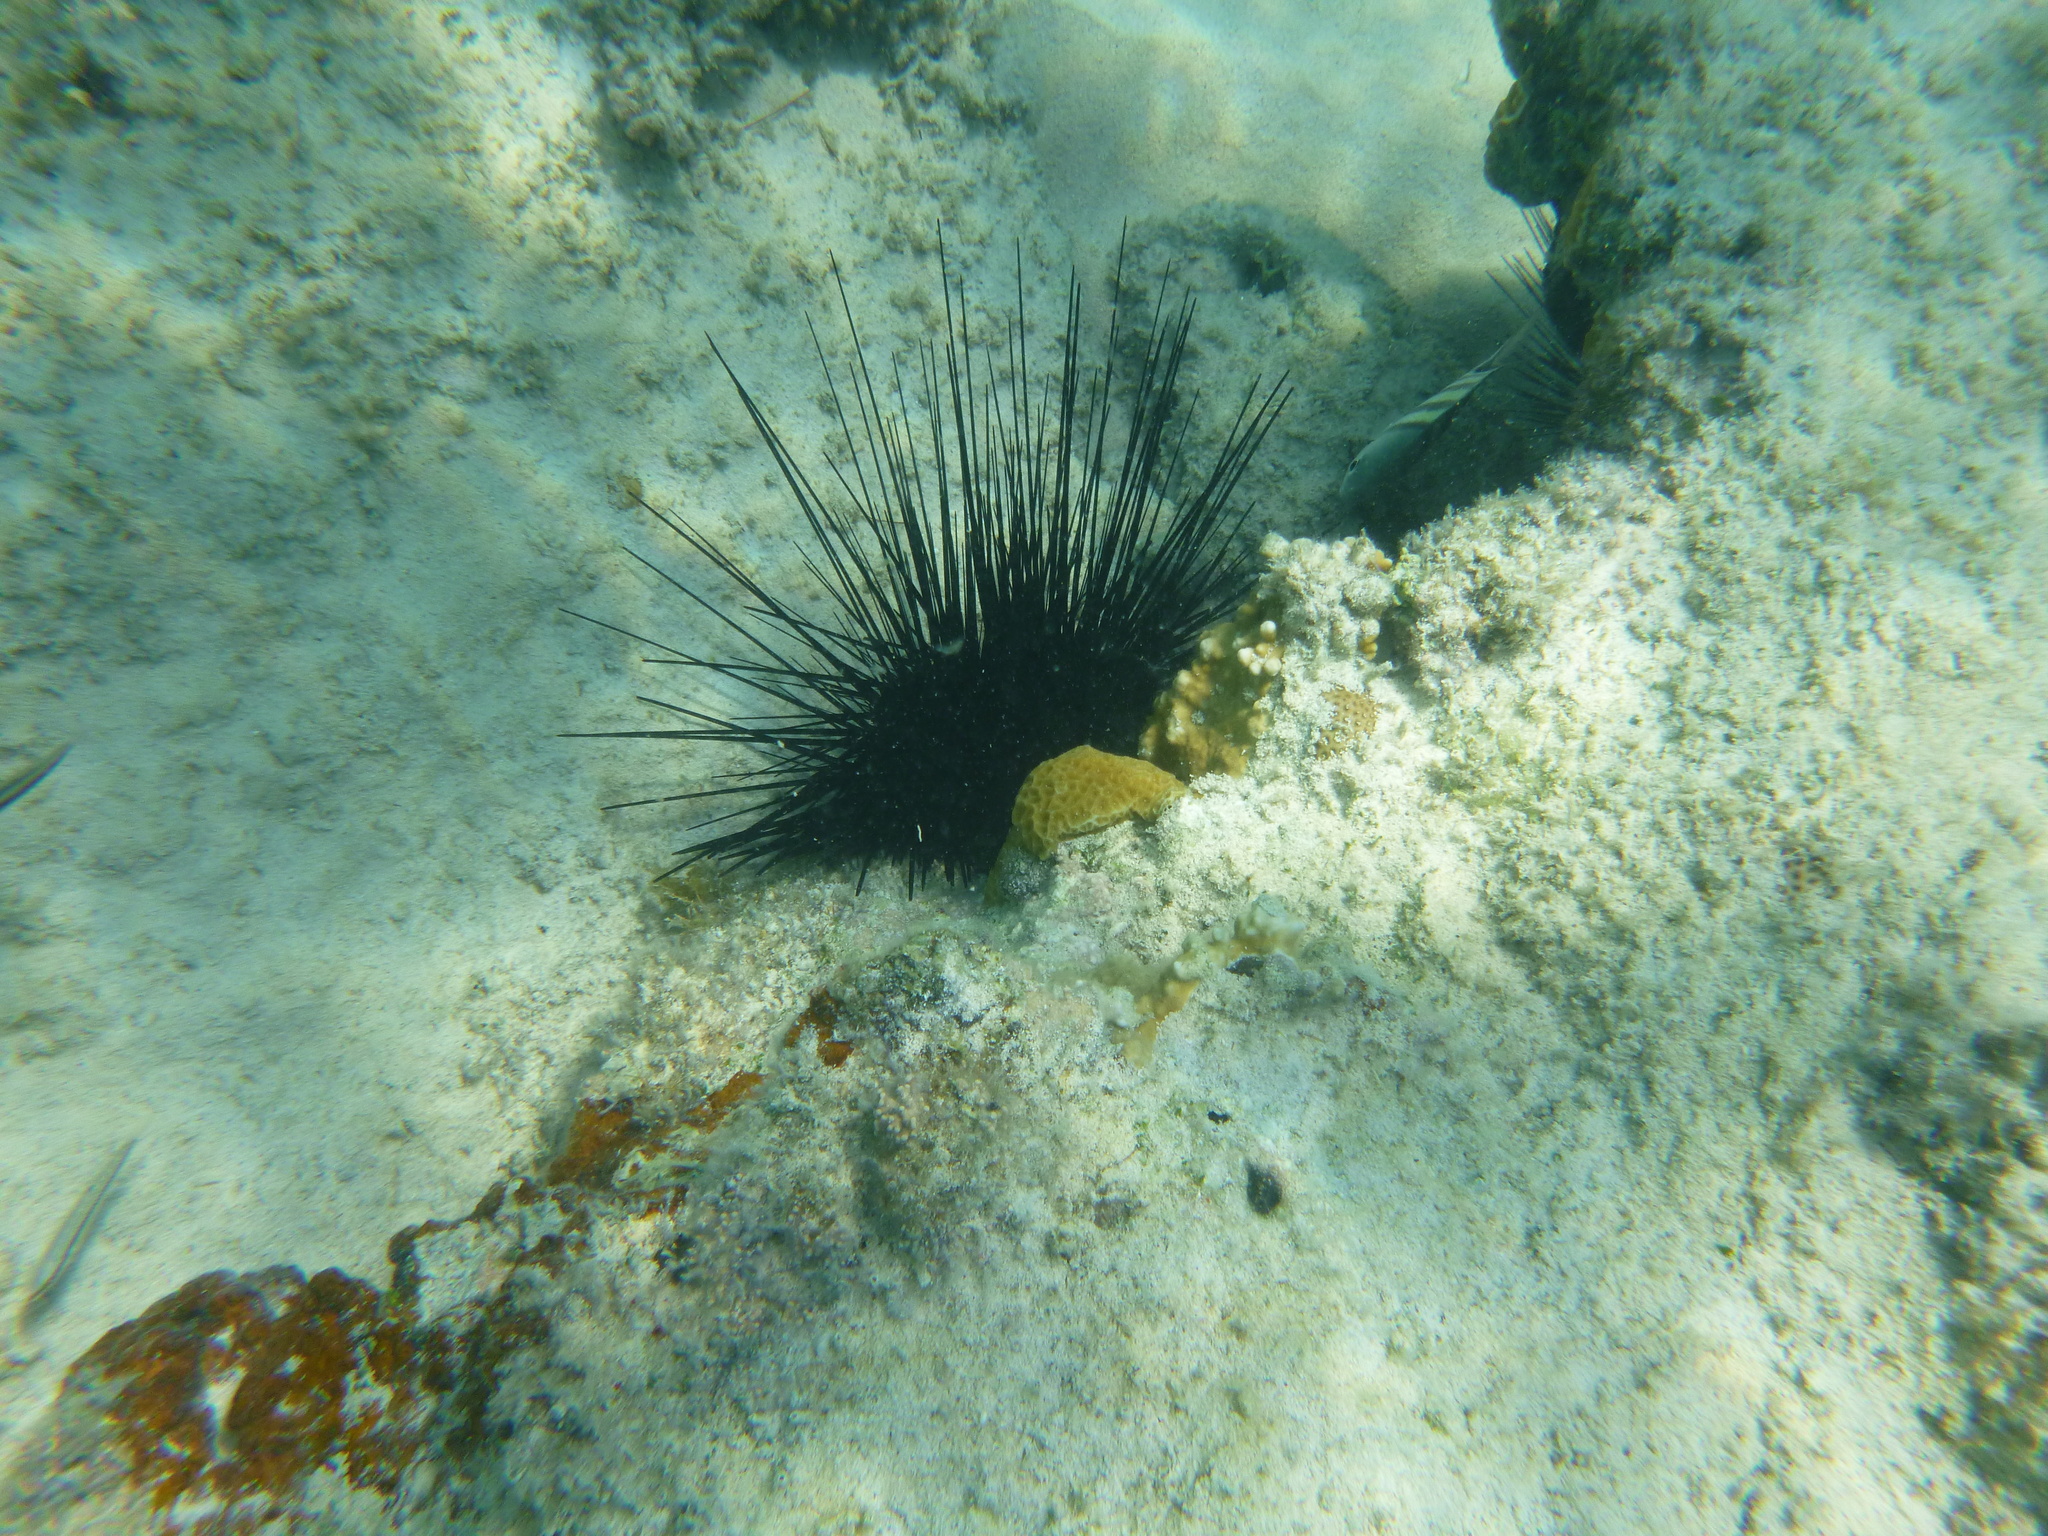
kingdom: Animalia
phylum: Echinodermata
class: Echinoidea
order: Diadematoida
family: Diadematidae
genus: Diadema
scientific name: Diadema antillarum
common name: Spiny urchin
